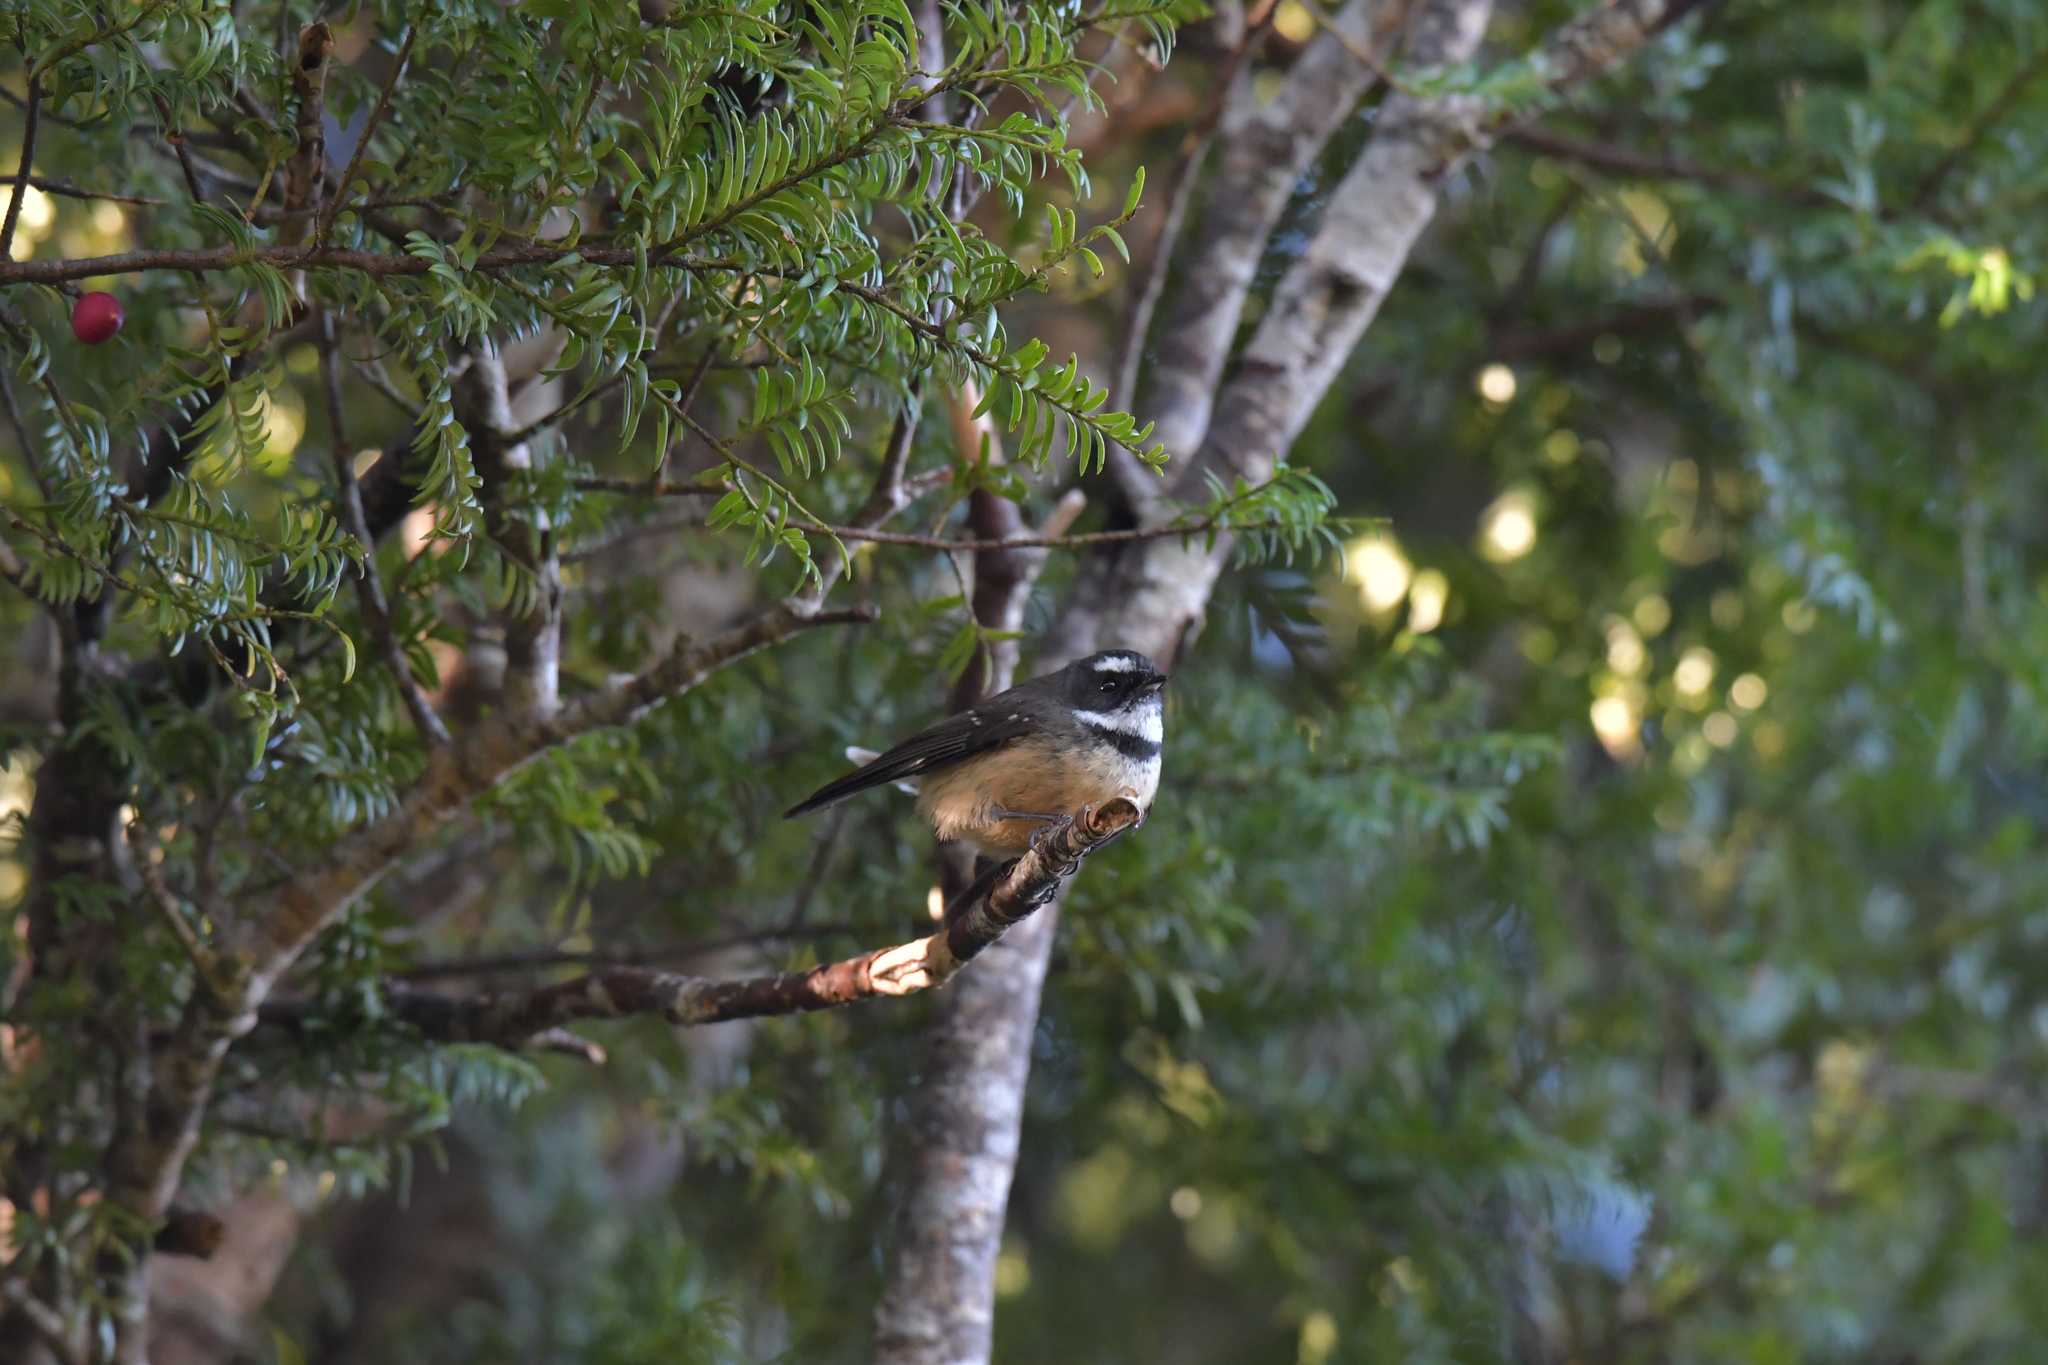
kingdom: Animalia
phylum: Chordata
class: Aves
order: Passeriformes
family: Rhipiduridae
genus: Rhipidura
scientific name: Rhipidura fuliginosa
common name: New zealand fantail
